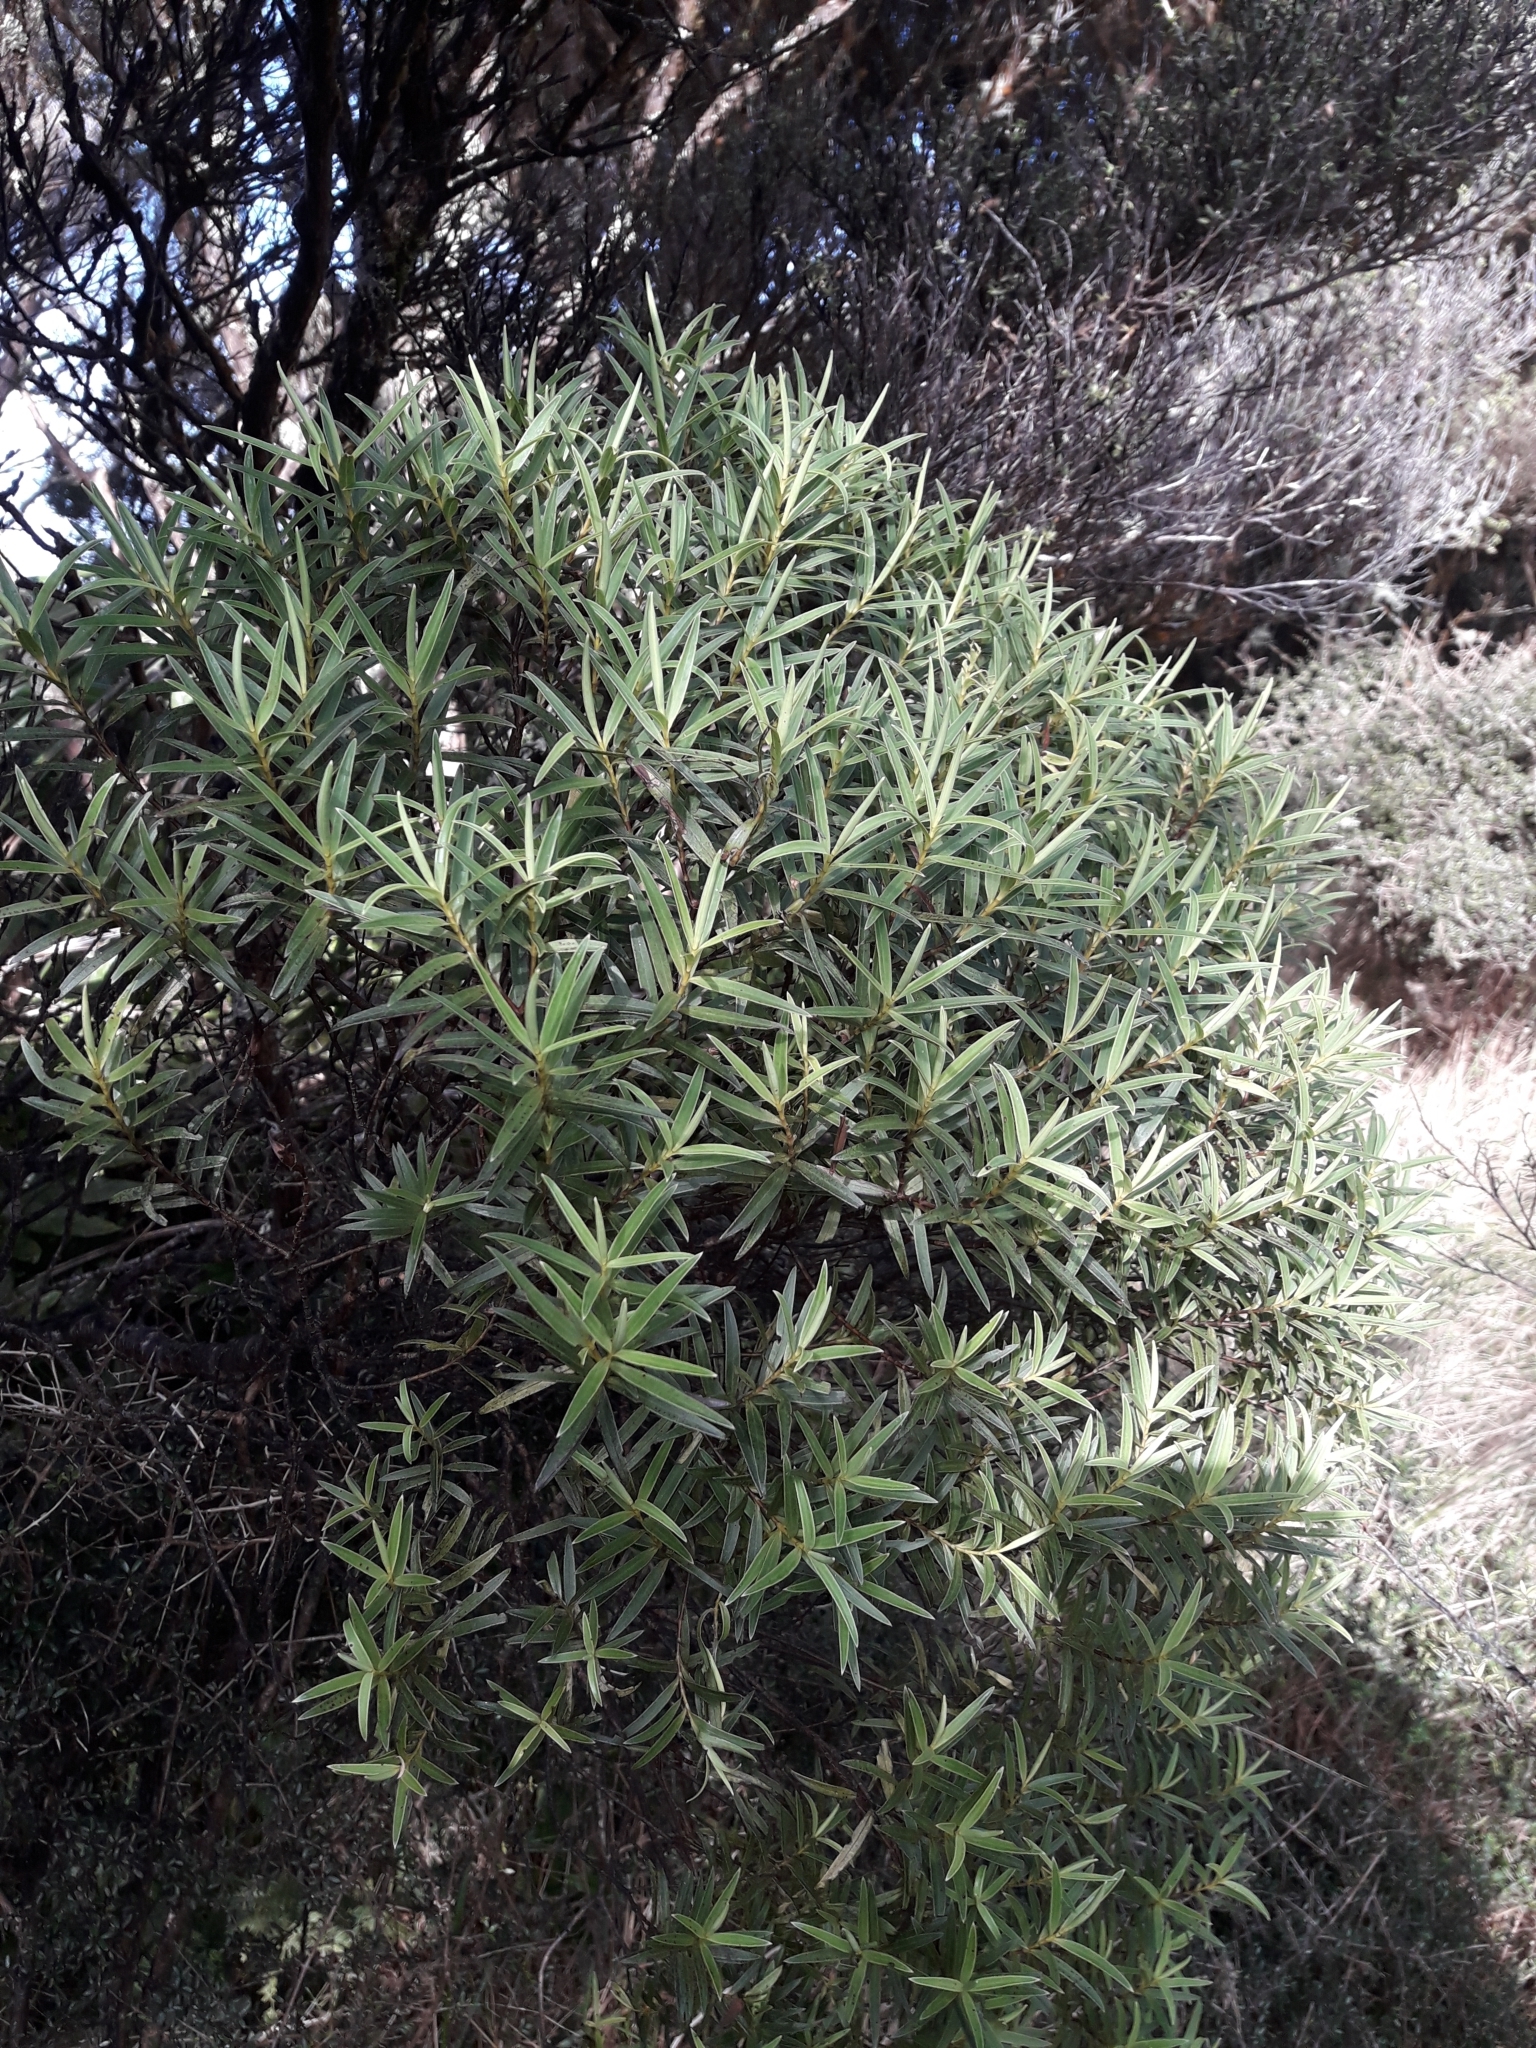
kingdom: Plantae
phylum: Tracheophyta
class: Magnoliopsida
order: Lamiales
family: Plantaginaceae
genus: Veronica
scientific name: Veronica parviflora
